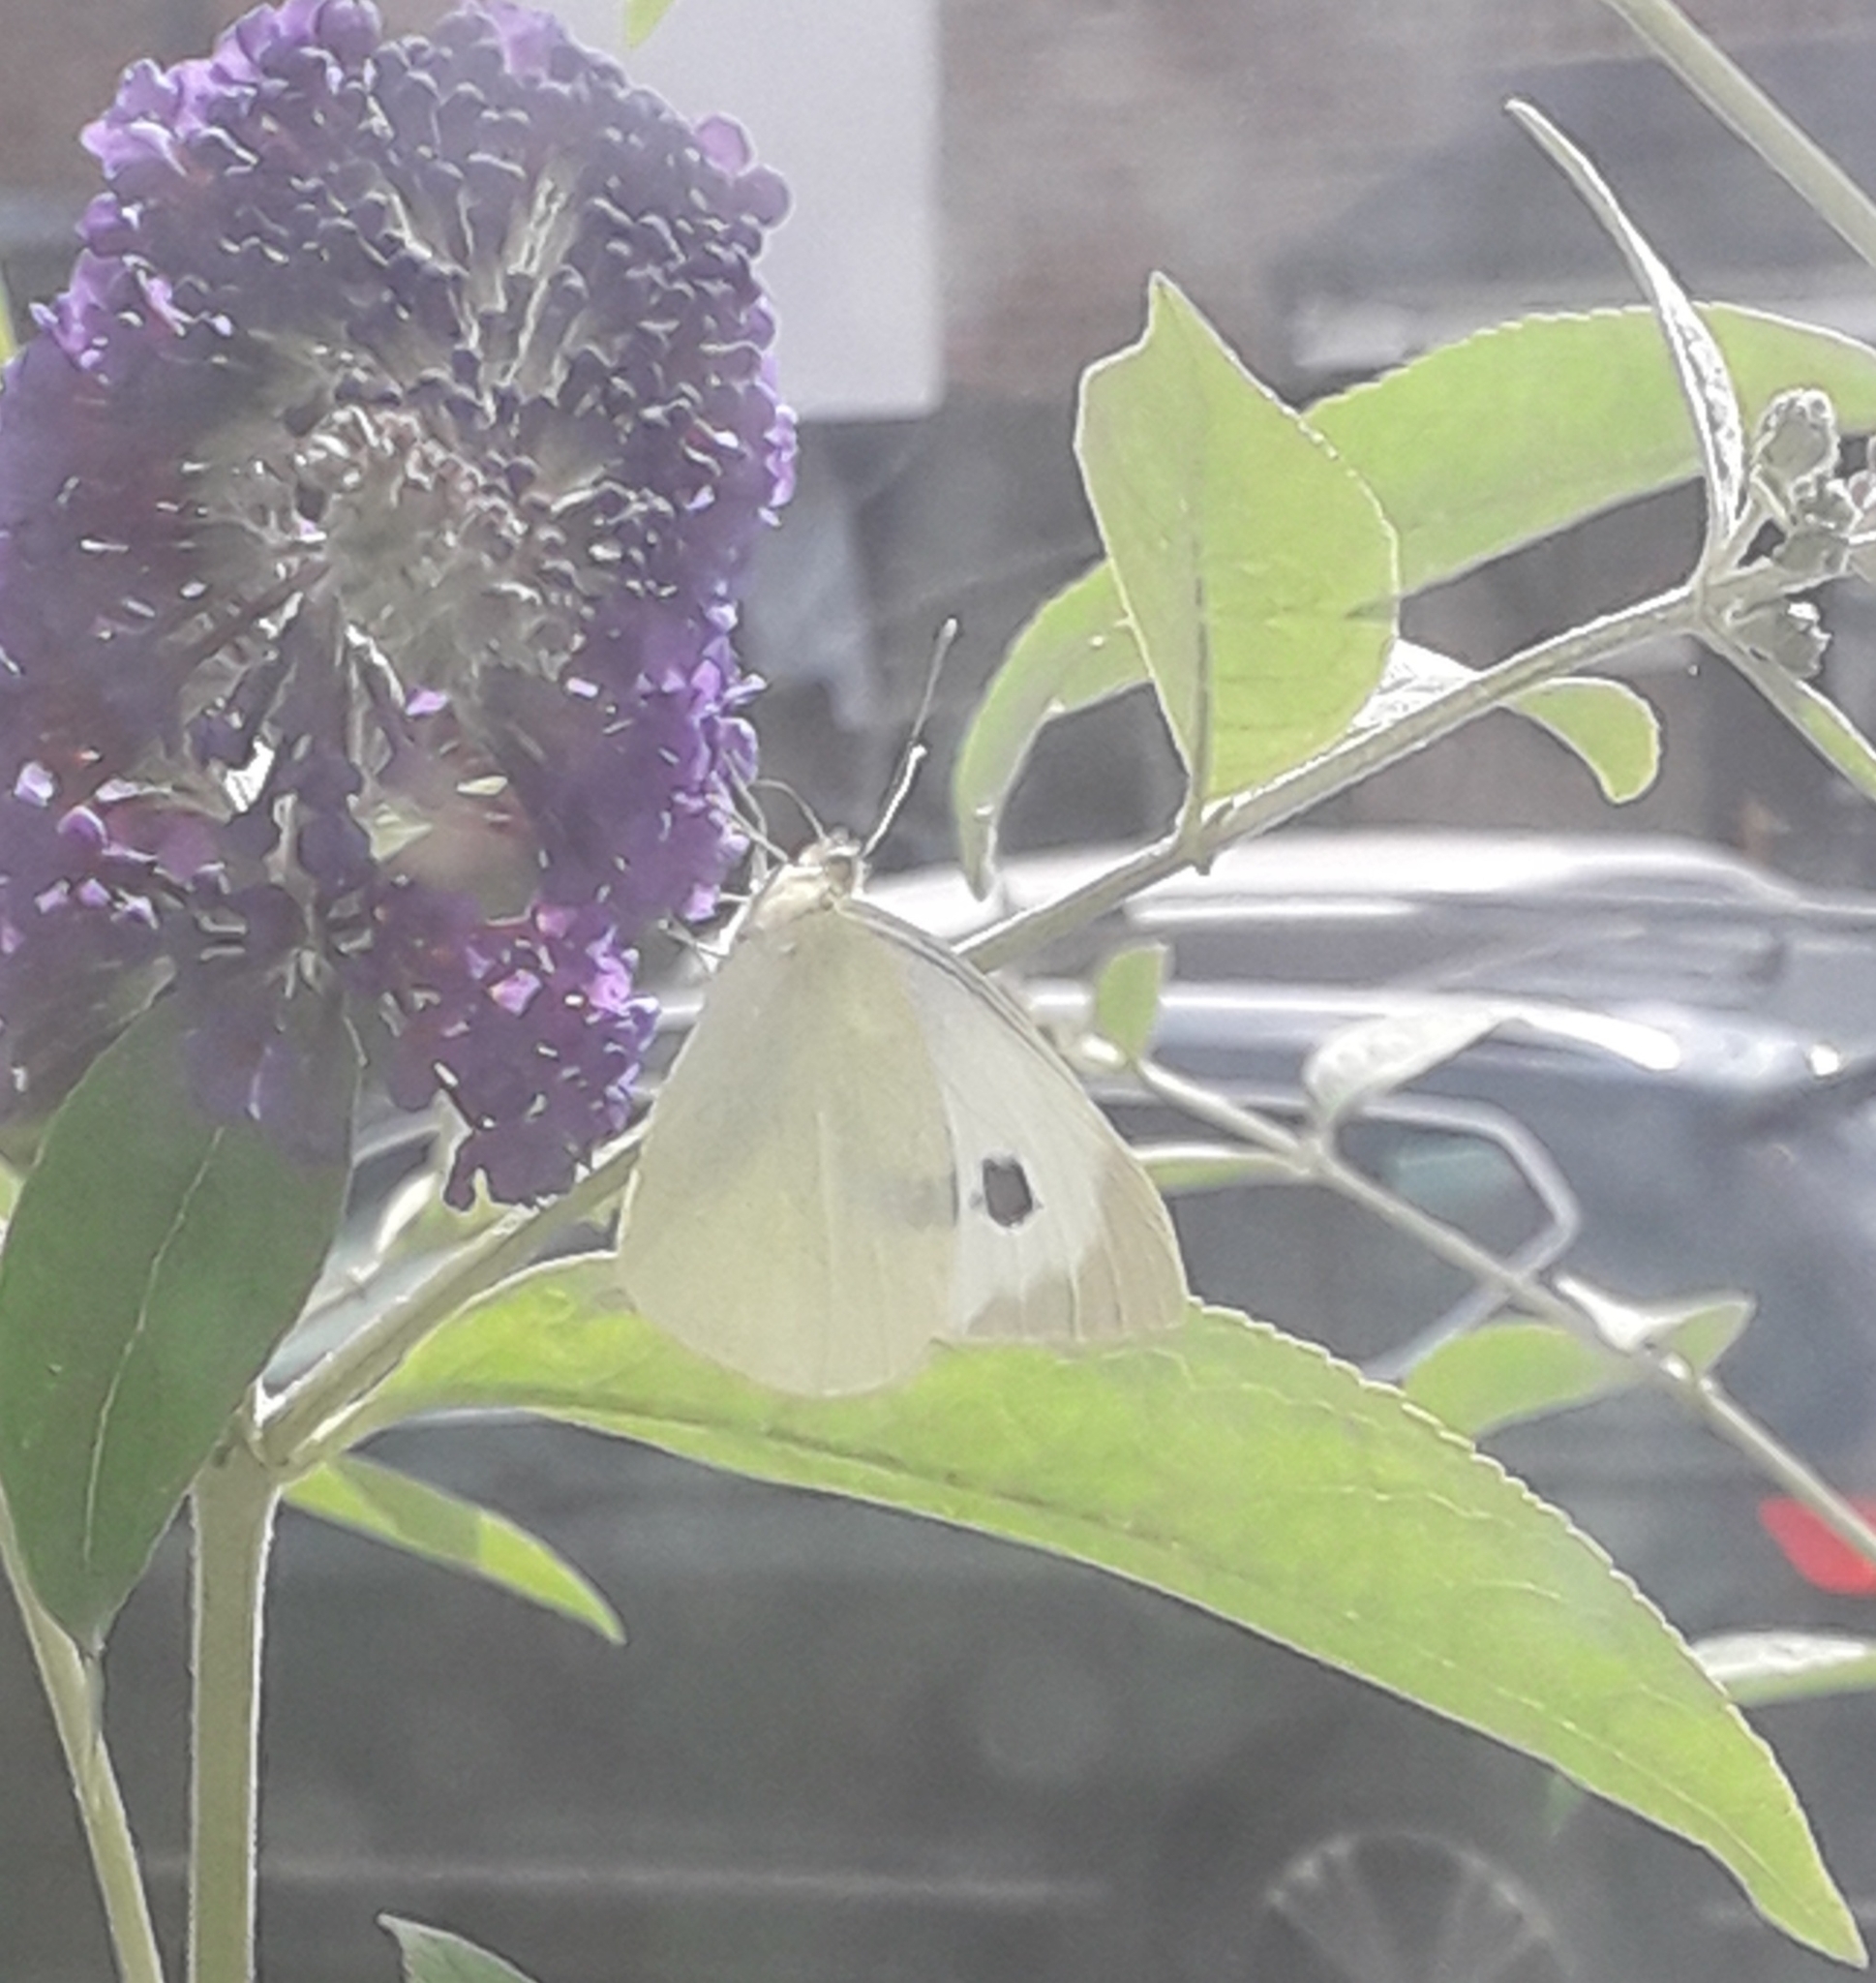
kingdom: Animalia
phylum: Arthropoda
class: Insecta
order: Lepidoptera
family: Pieridae
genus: Pieris
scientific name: Pieris brassicae
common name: Large white
